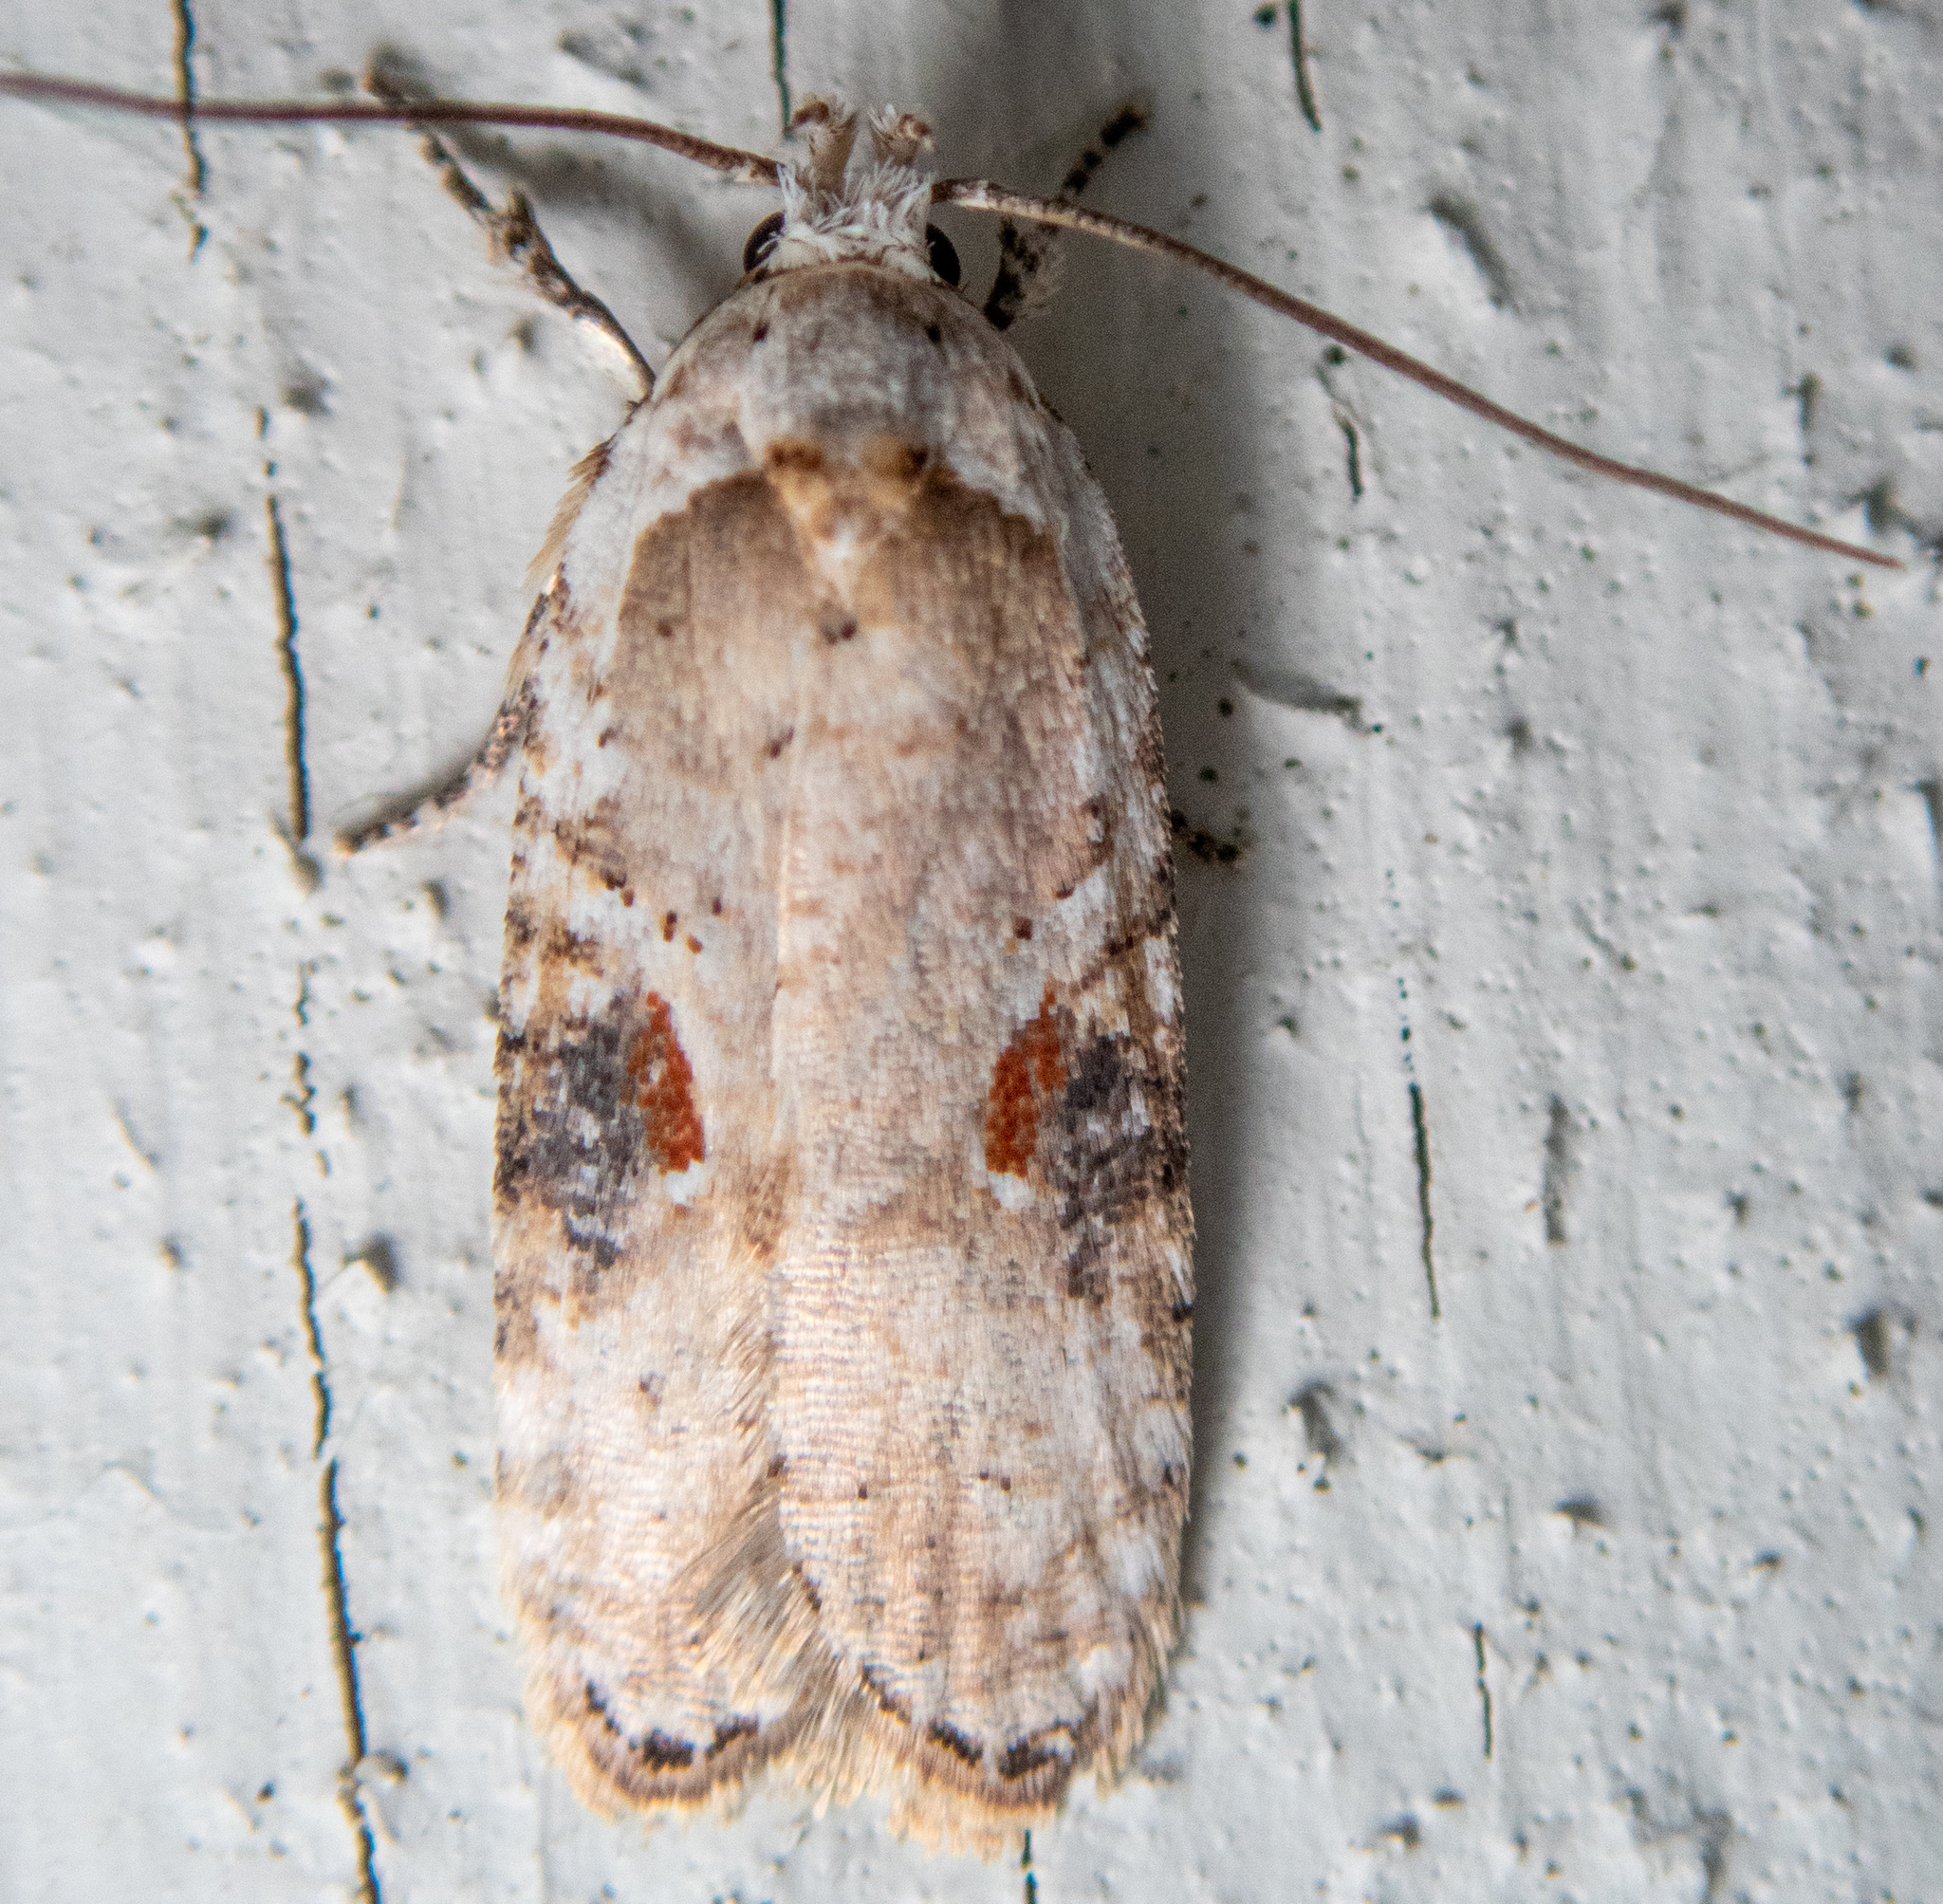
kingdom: Animalia
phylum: Arthropoda
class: Insecta
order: Lepidoptera
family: Depressariidae
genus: Agonopterix
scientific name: Agonopterix alstroemeriana
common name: Moth
